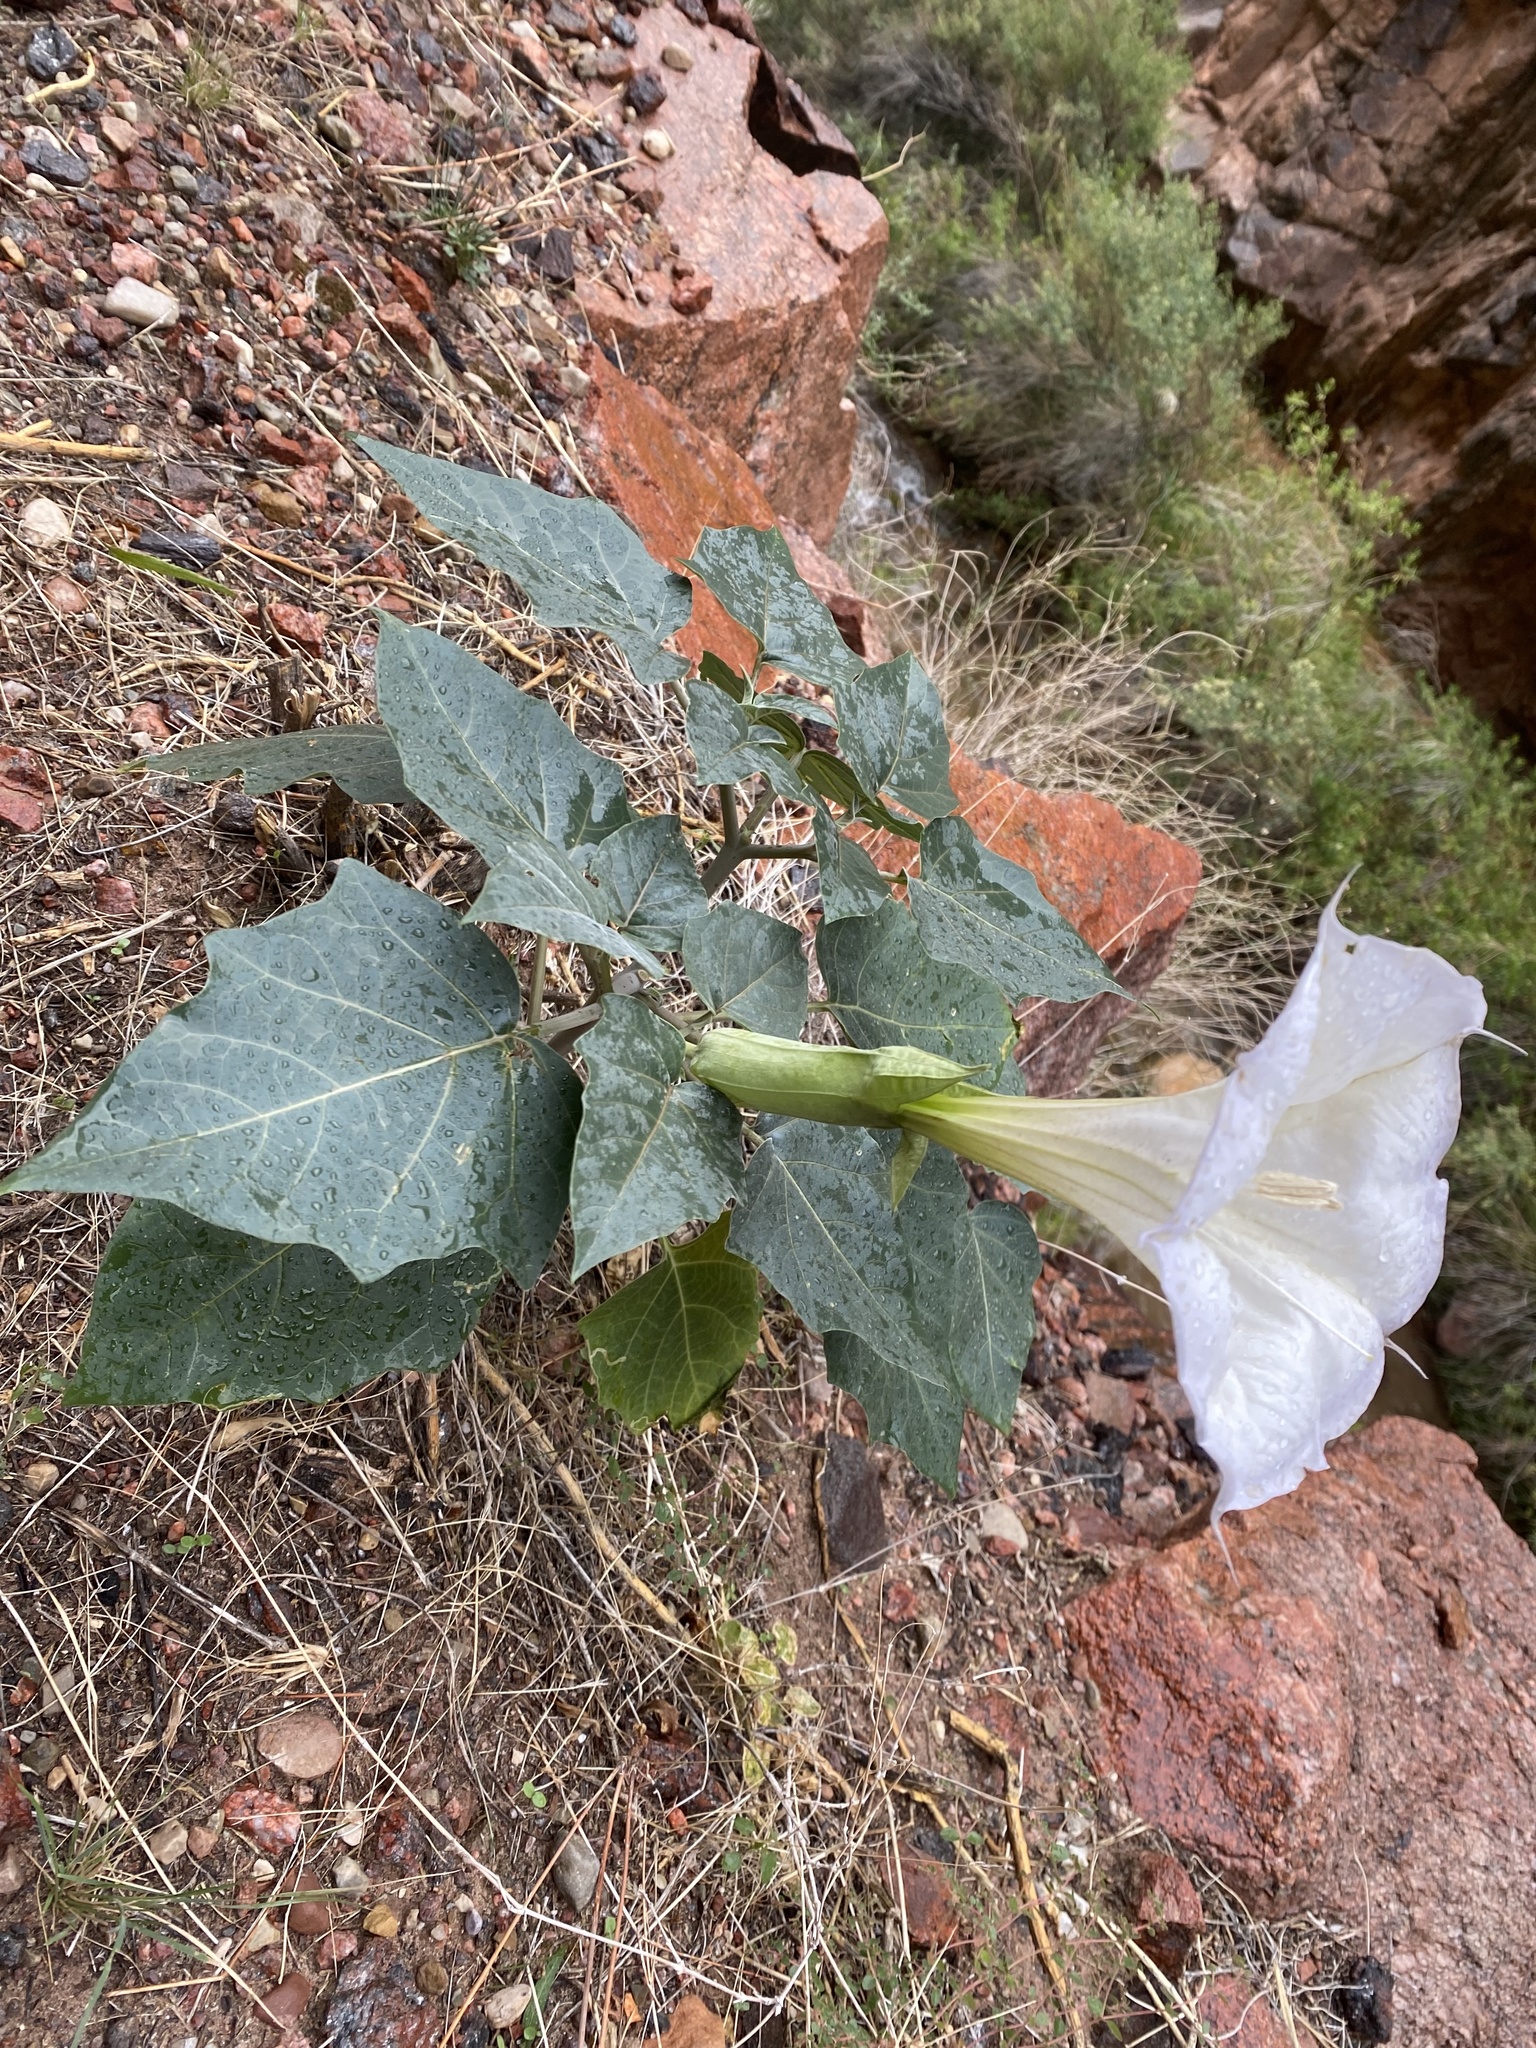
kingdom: Plantae
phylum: Tracheophyta
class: Magnoliopsida
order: Solanales
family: Solanaceae
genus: Datura
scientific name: Datura wrightii
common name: Sacred thorn-apple
